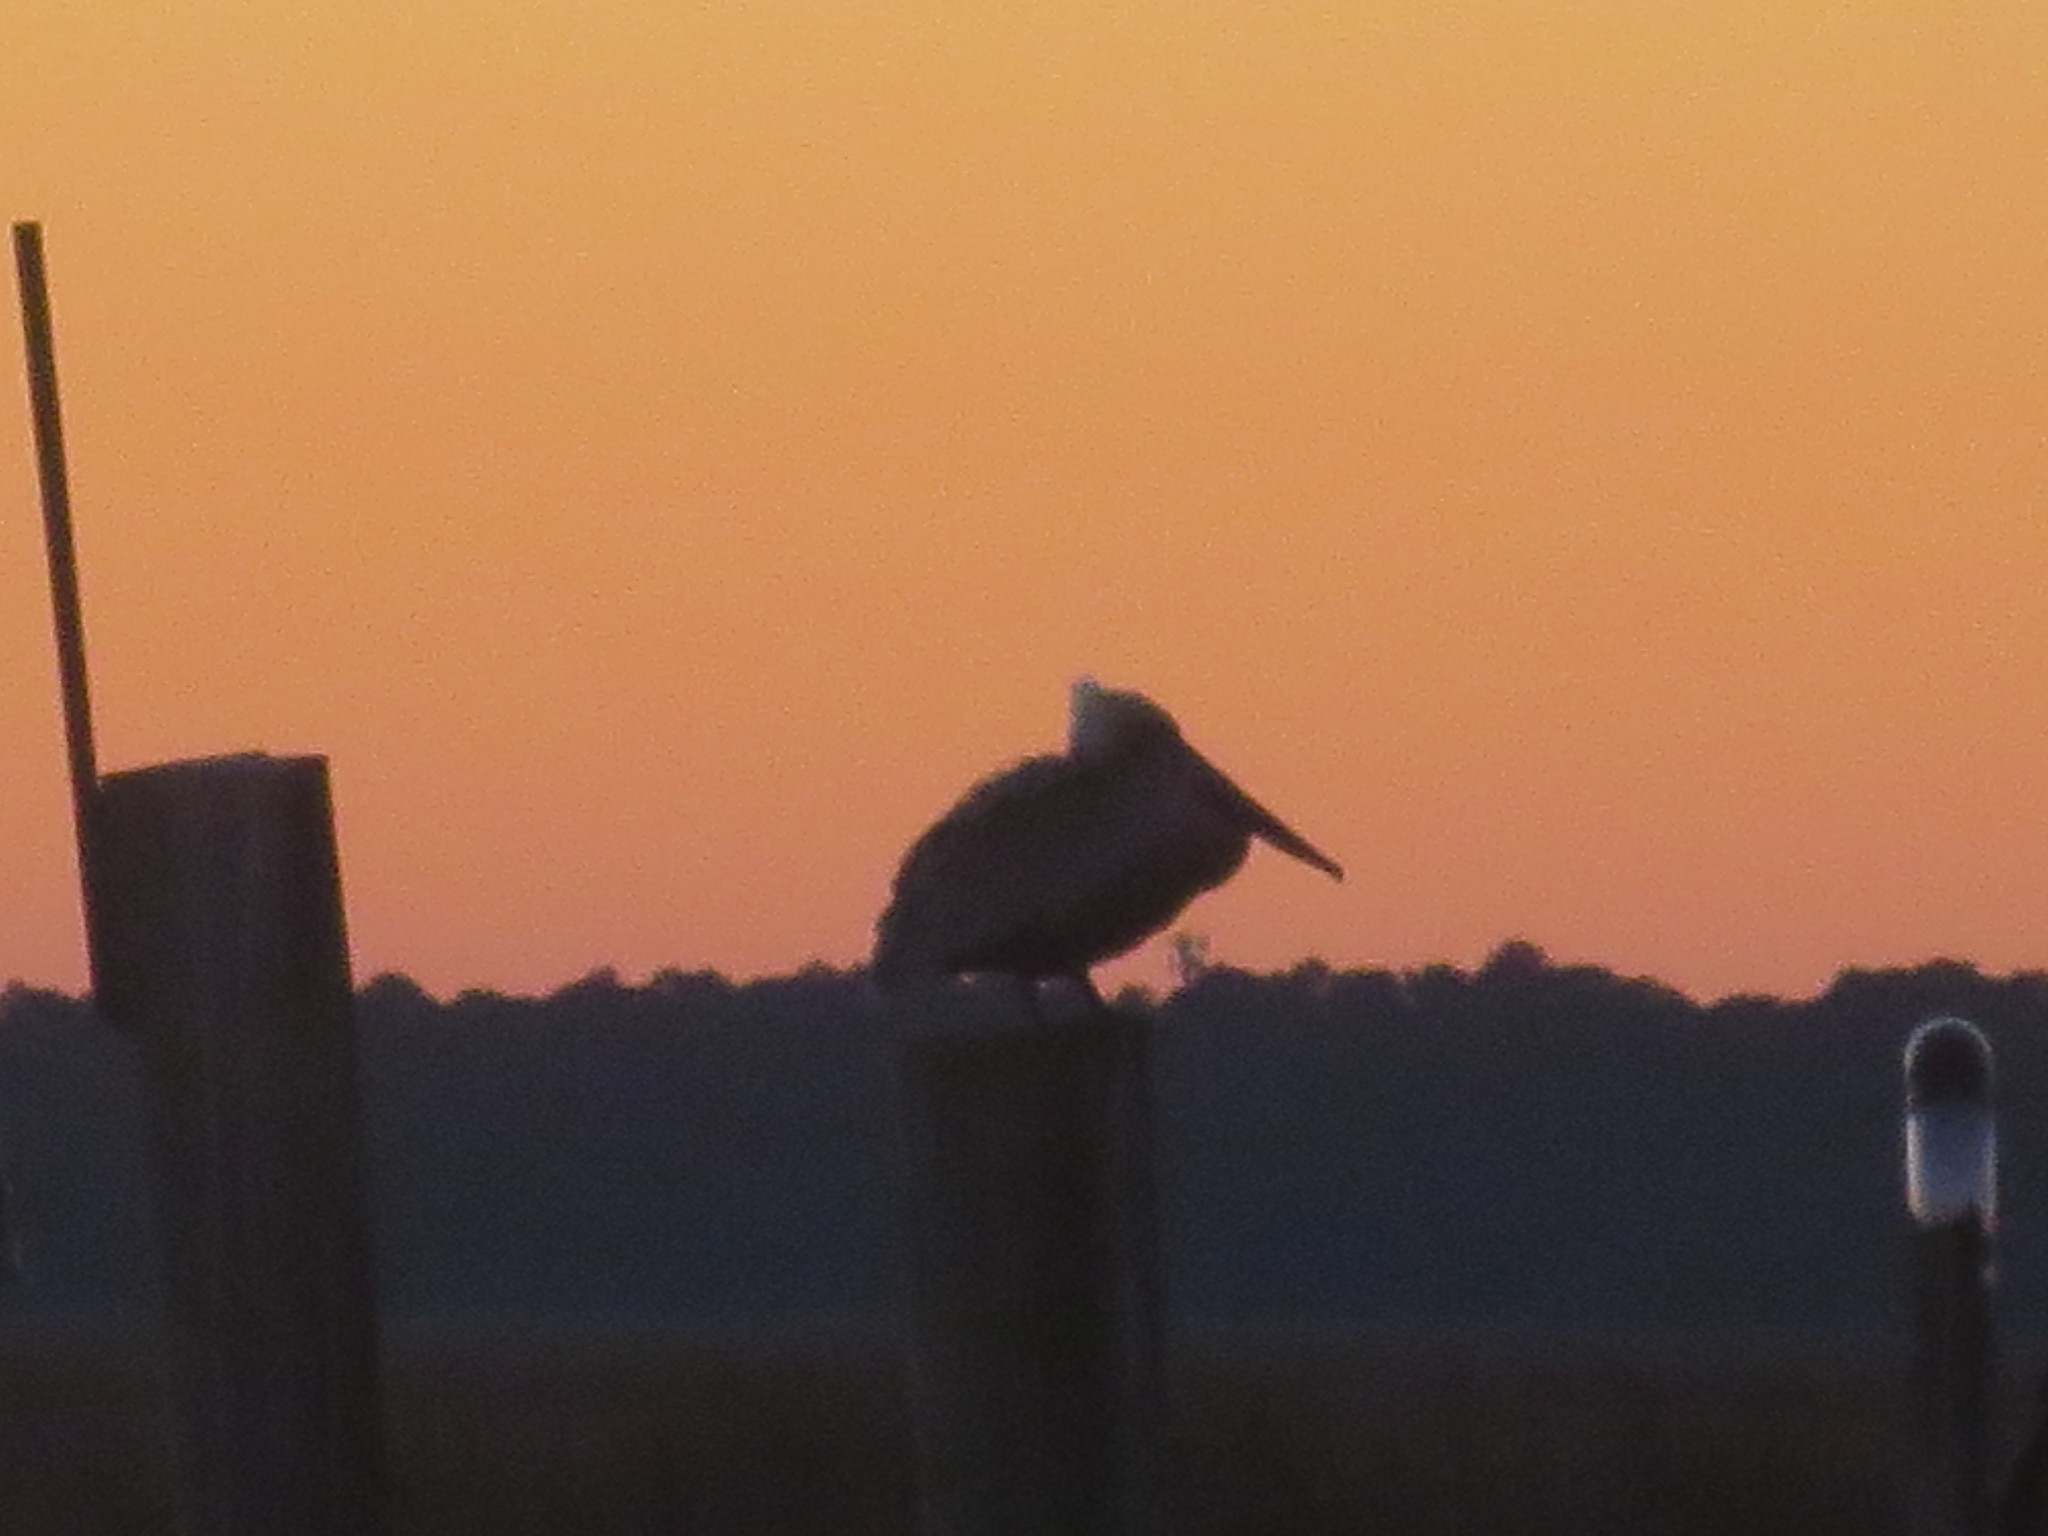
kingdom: Animalia
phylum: Chordata
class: Aves
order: Pelecaniformes
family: Pelecanidae
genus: Pelecanus
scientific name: Pelecanus occidentalis
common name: Brown pelican
